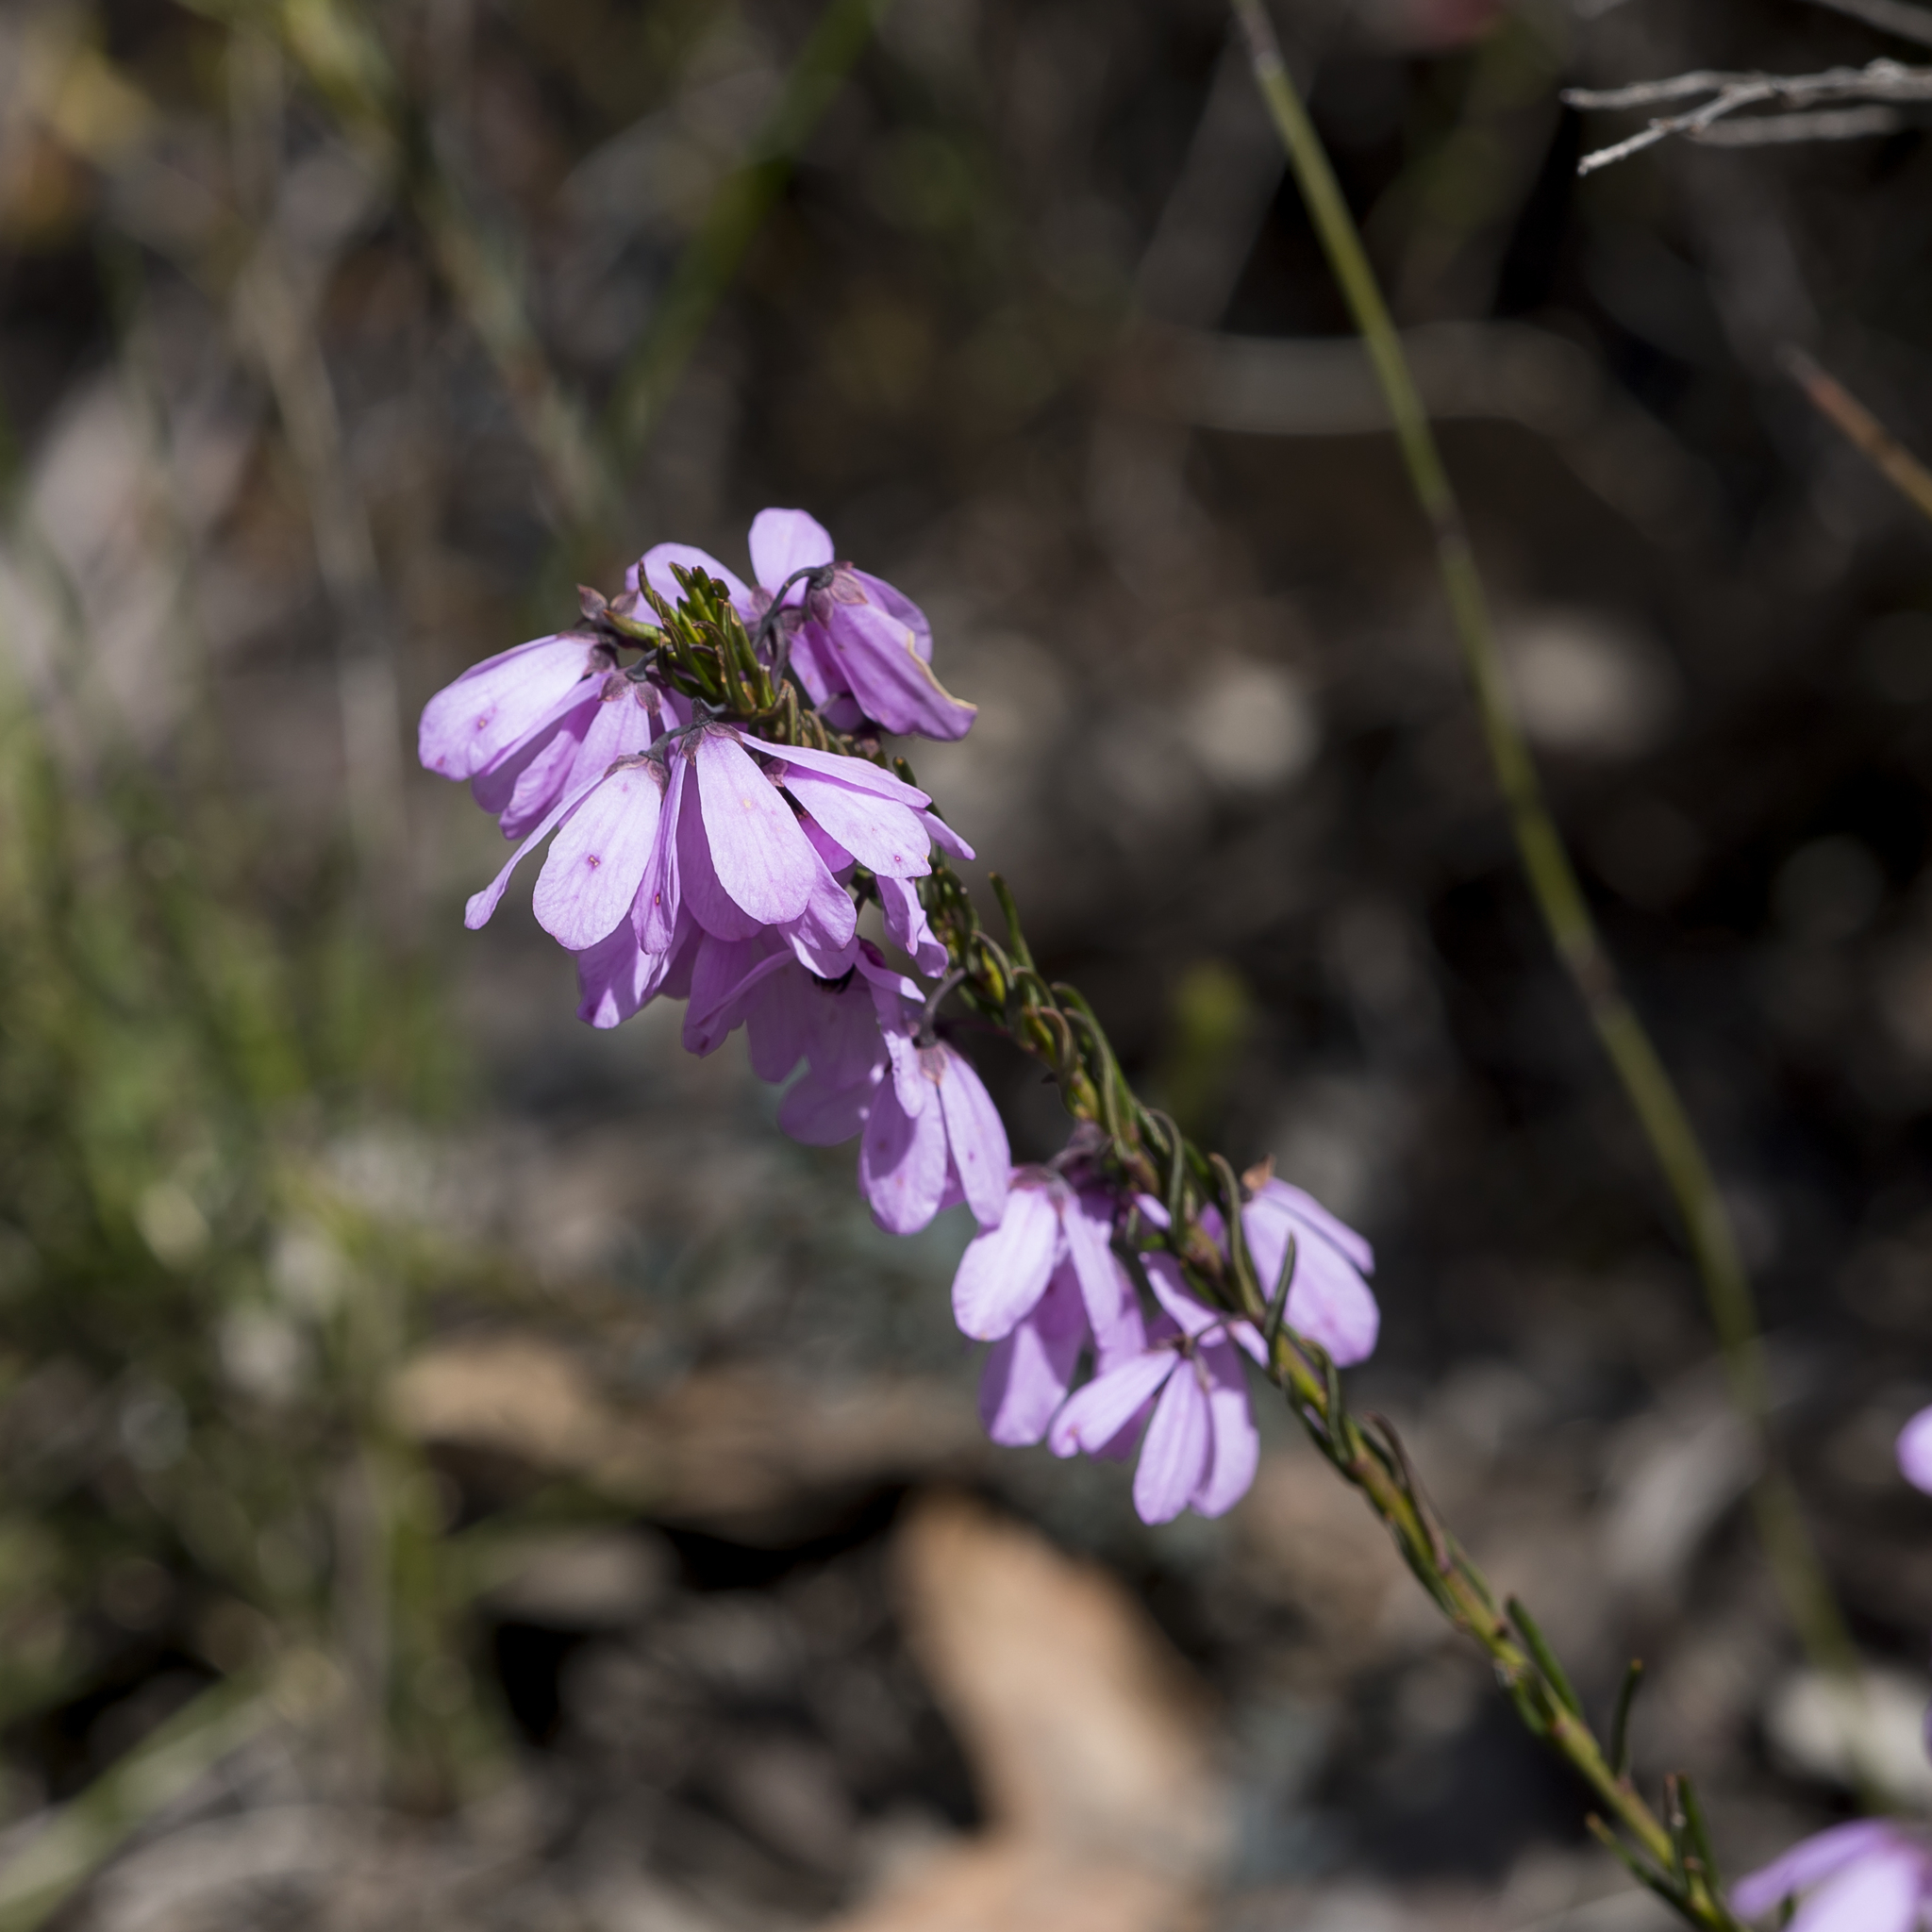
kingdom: Plantae
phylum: Tracheophyta
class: Magnoliopsida
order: Oxalidales
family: Elaeocarpaceae
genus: Tetratheca
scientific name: Tetratheca pilosa
